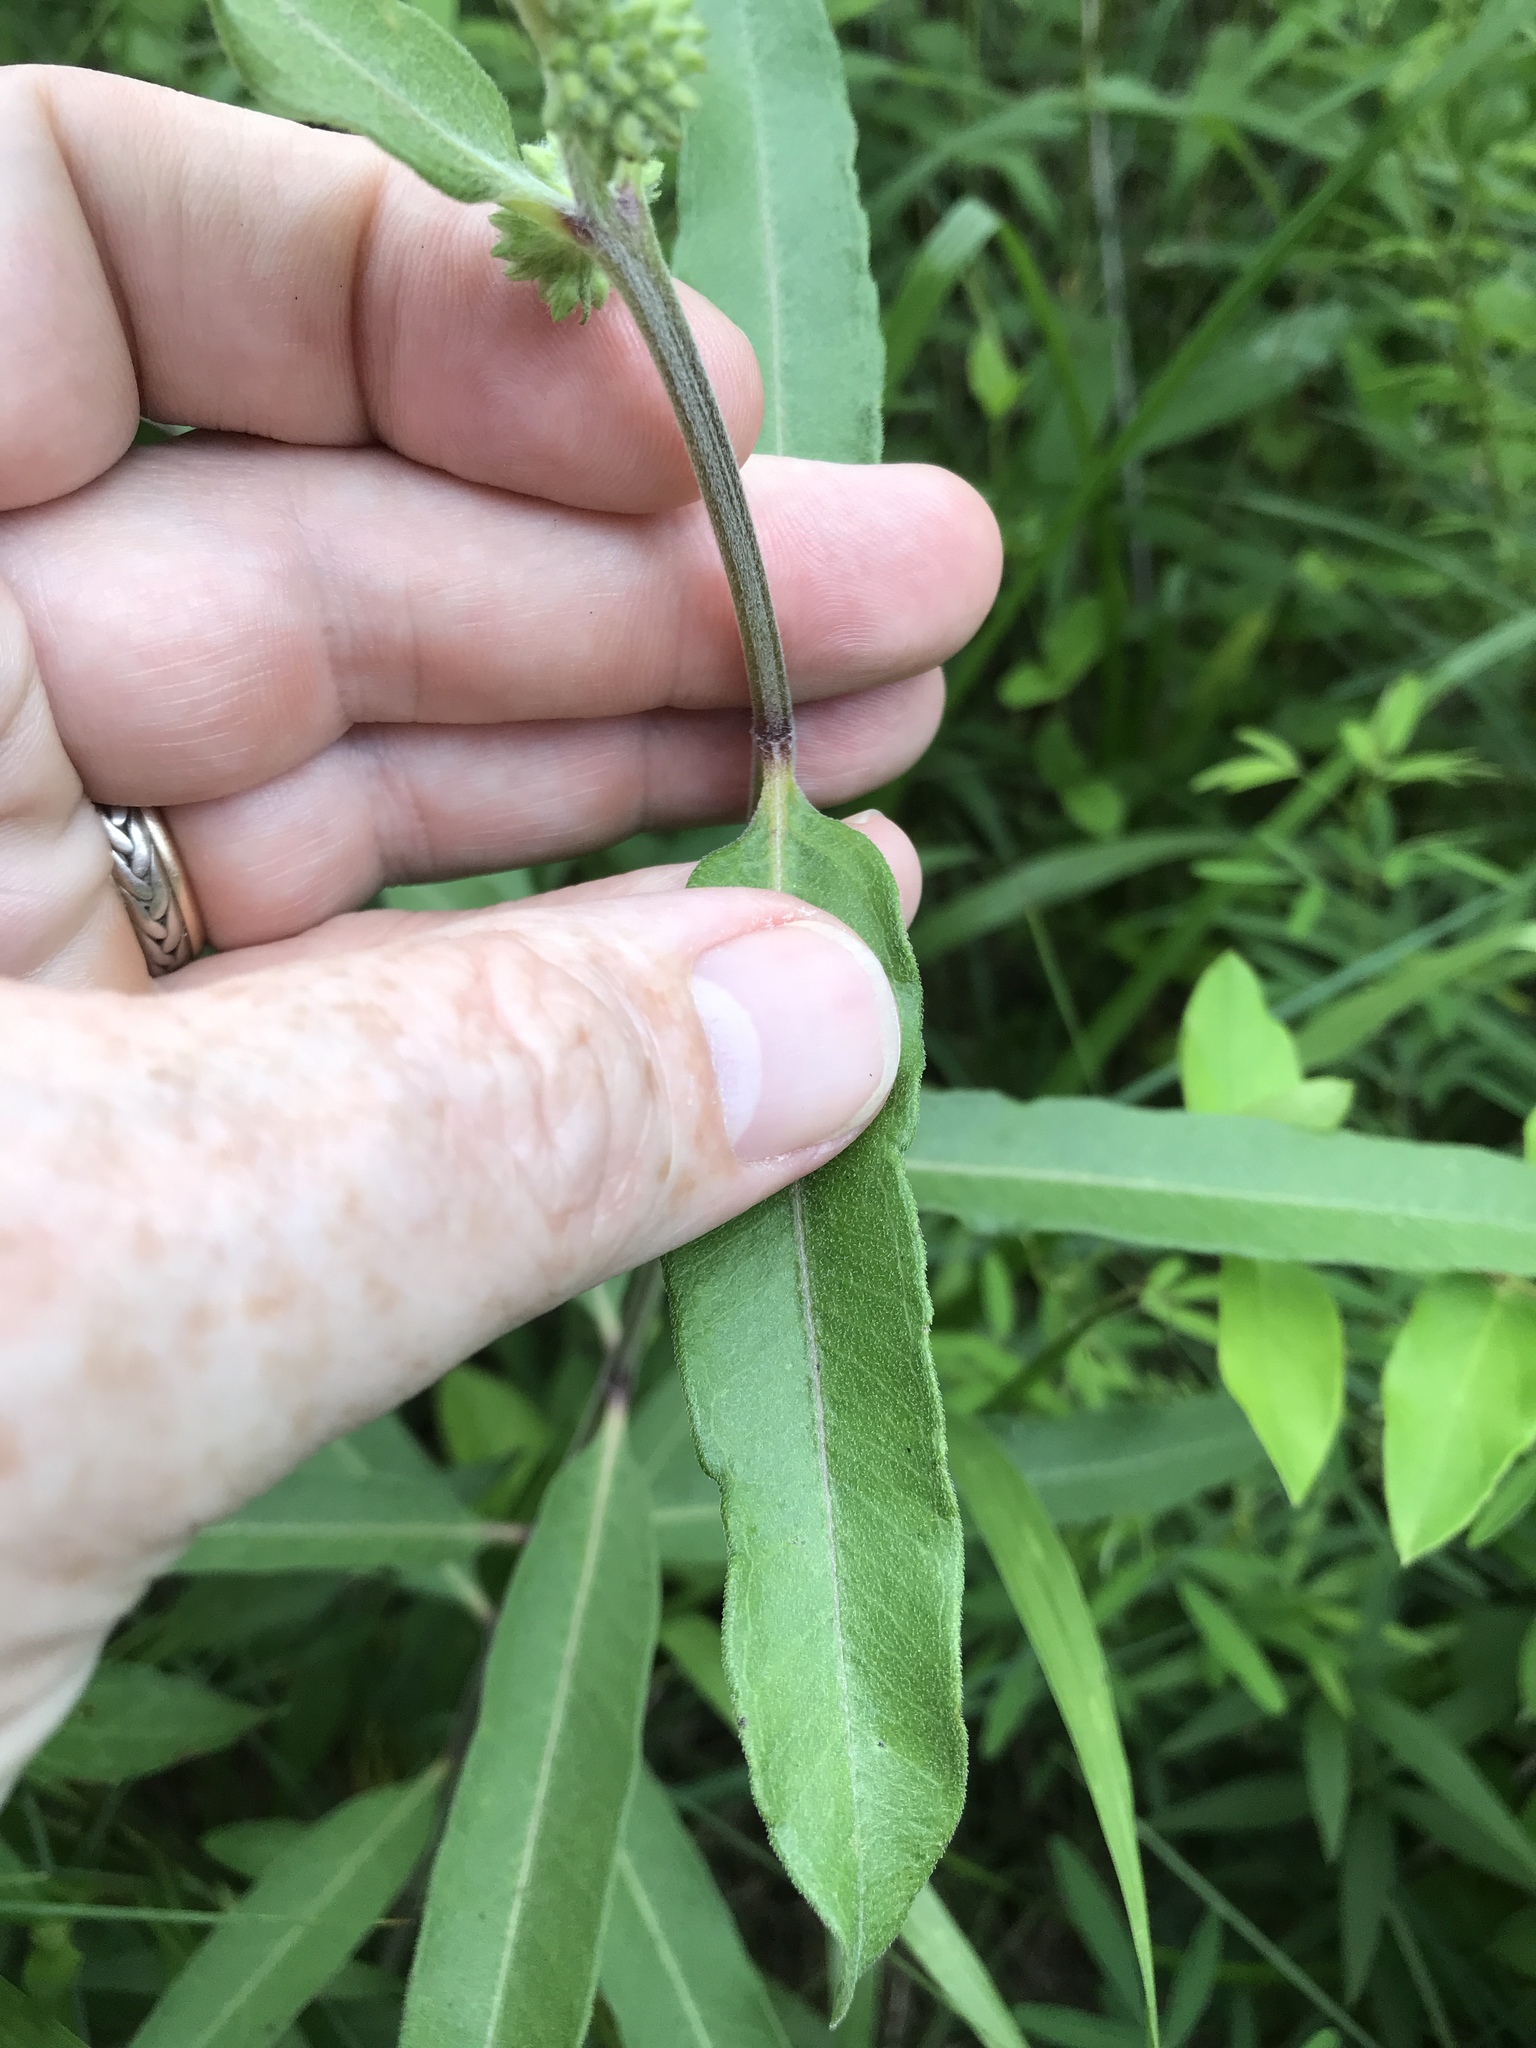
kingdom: Plantae
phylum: Tracheophyta
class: Magnoliopsida
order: Gentianales
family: Apocynaceae
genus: Asclepias
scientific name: Asclepias viridiflora
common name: Green comet milkweed
